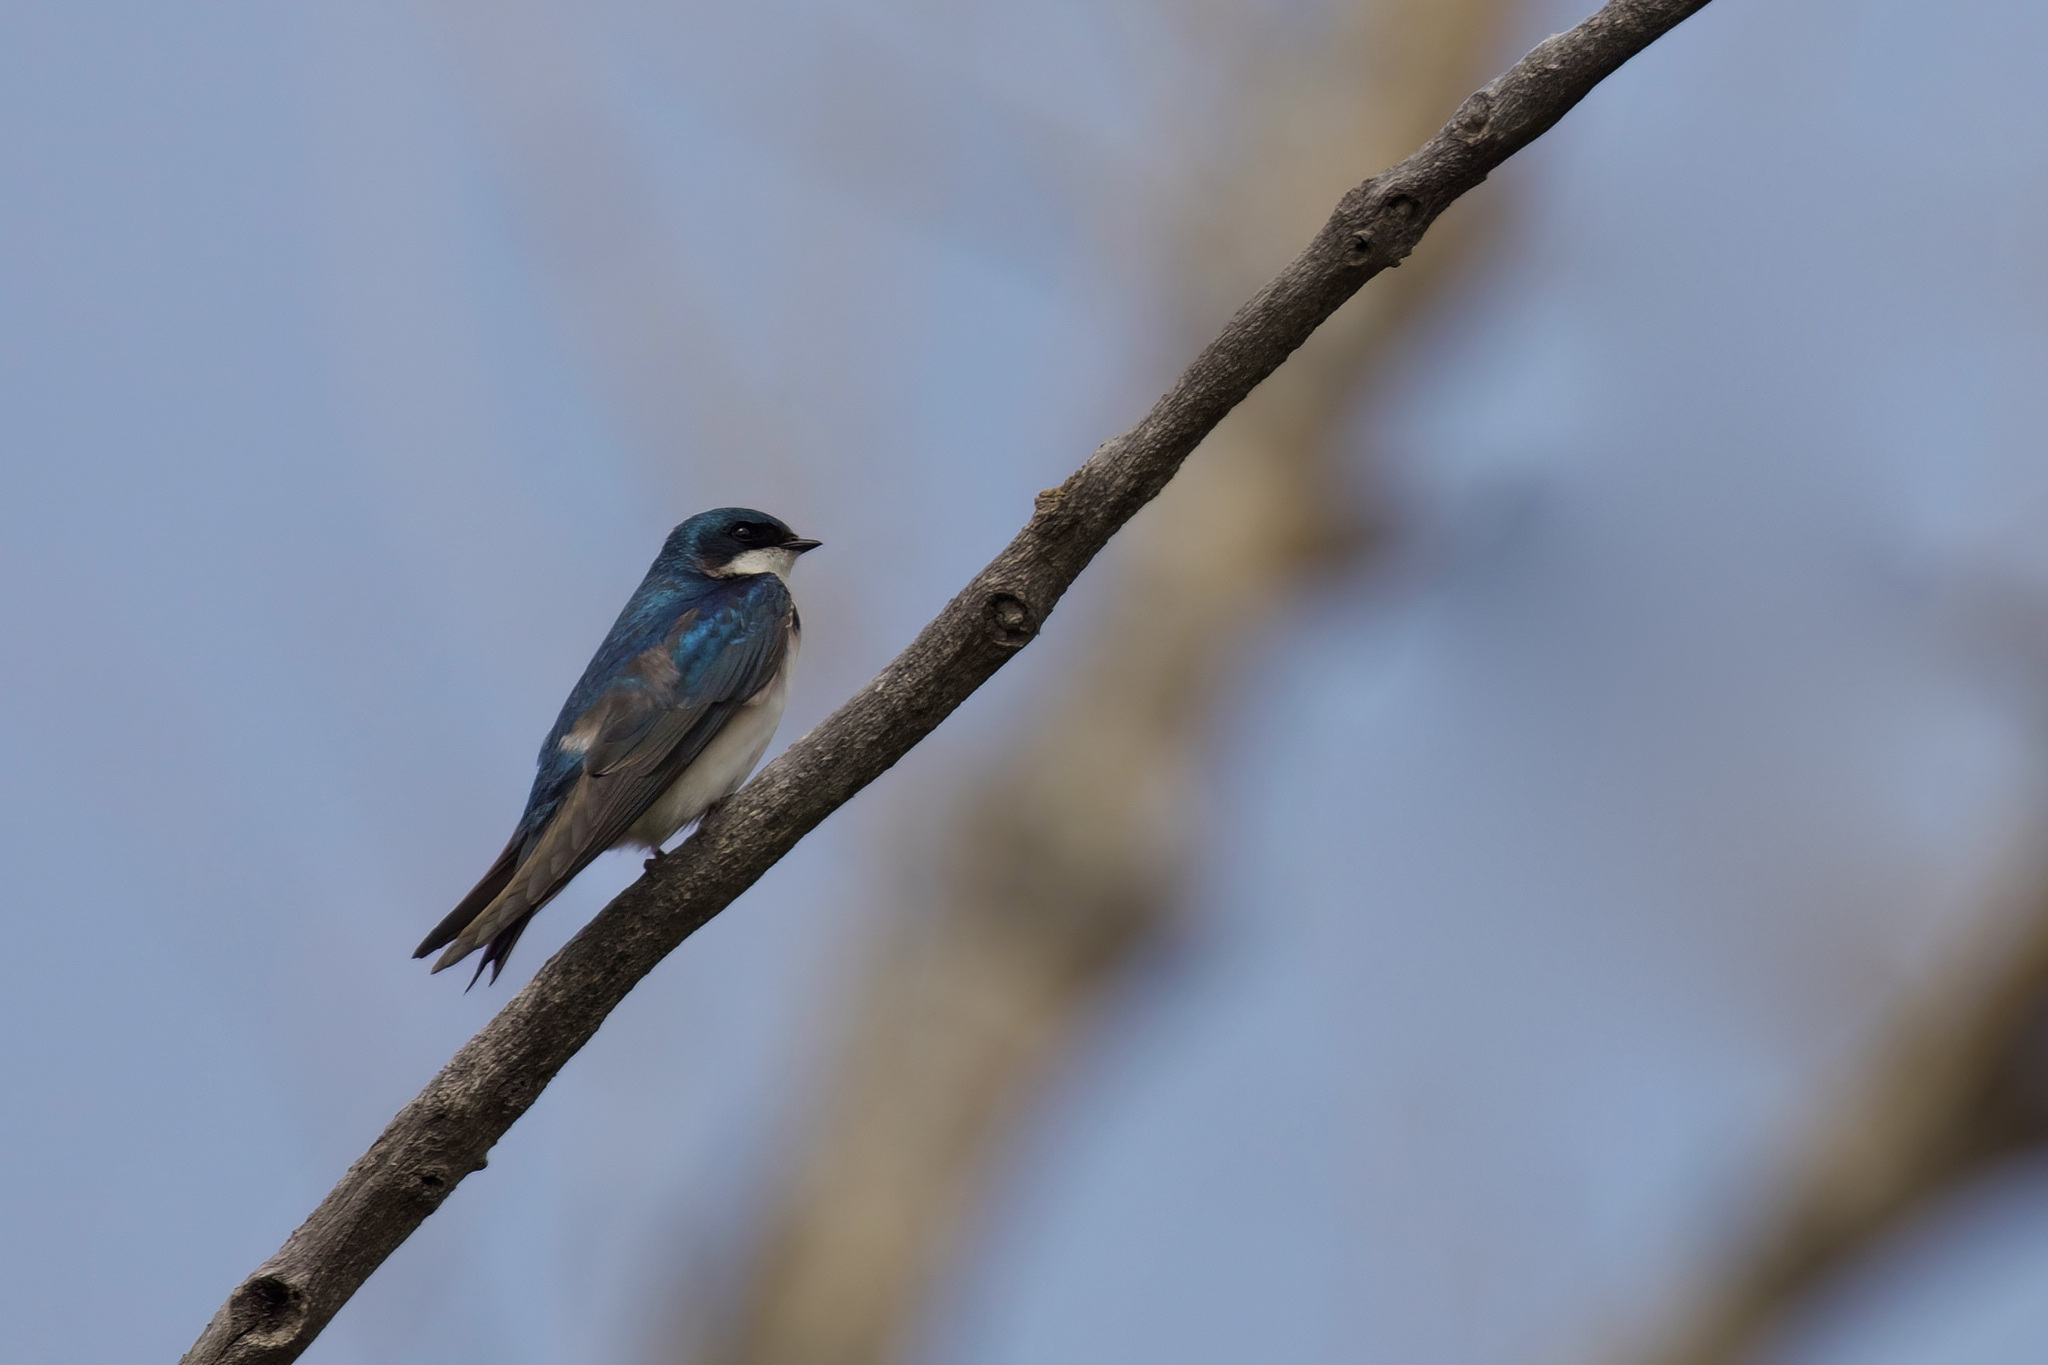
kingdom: Animalia
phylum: Chordata
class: Aves
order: Passeriformes
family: Hirundinidae
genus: Tachycineta
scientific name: Tachycineta bicolor
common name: Tree swallow
